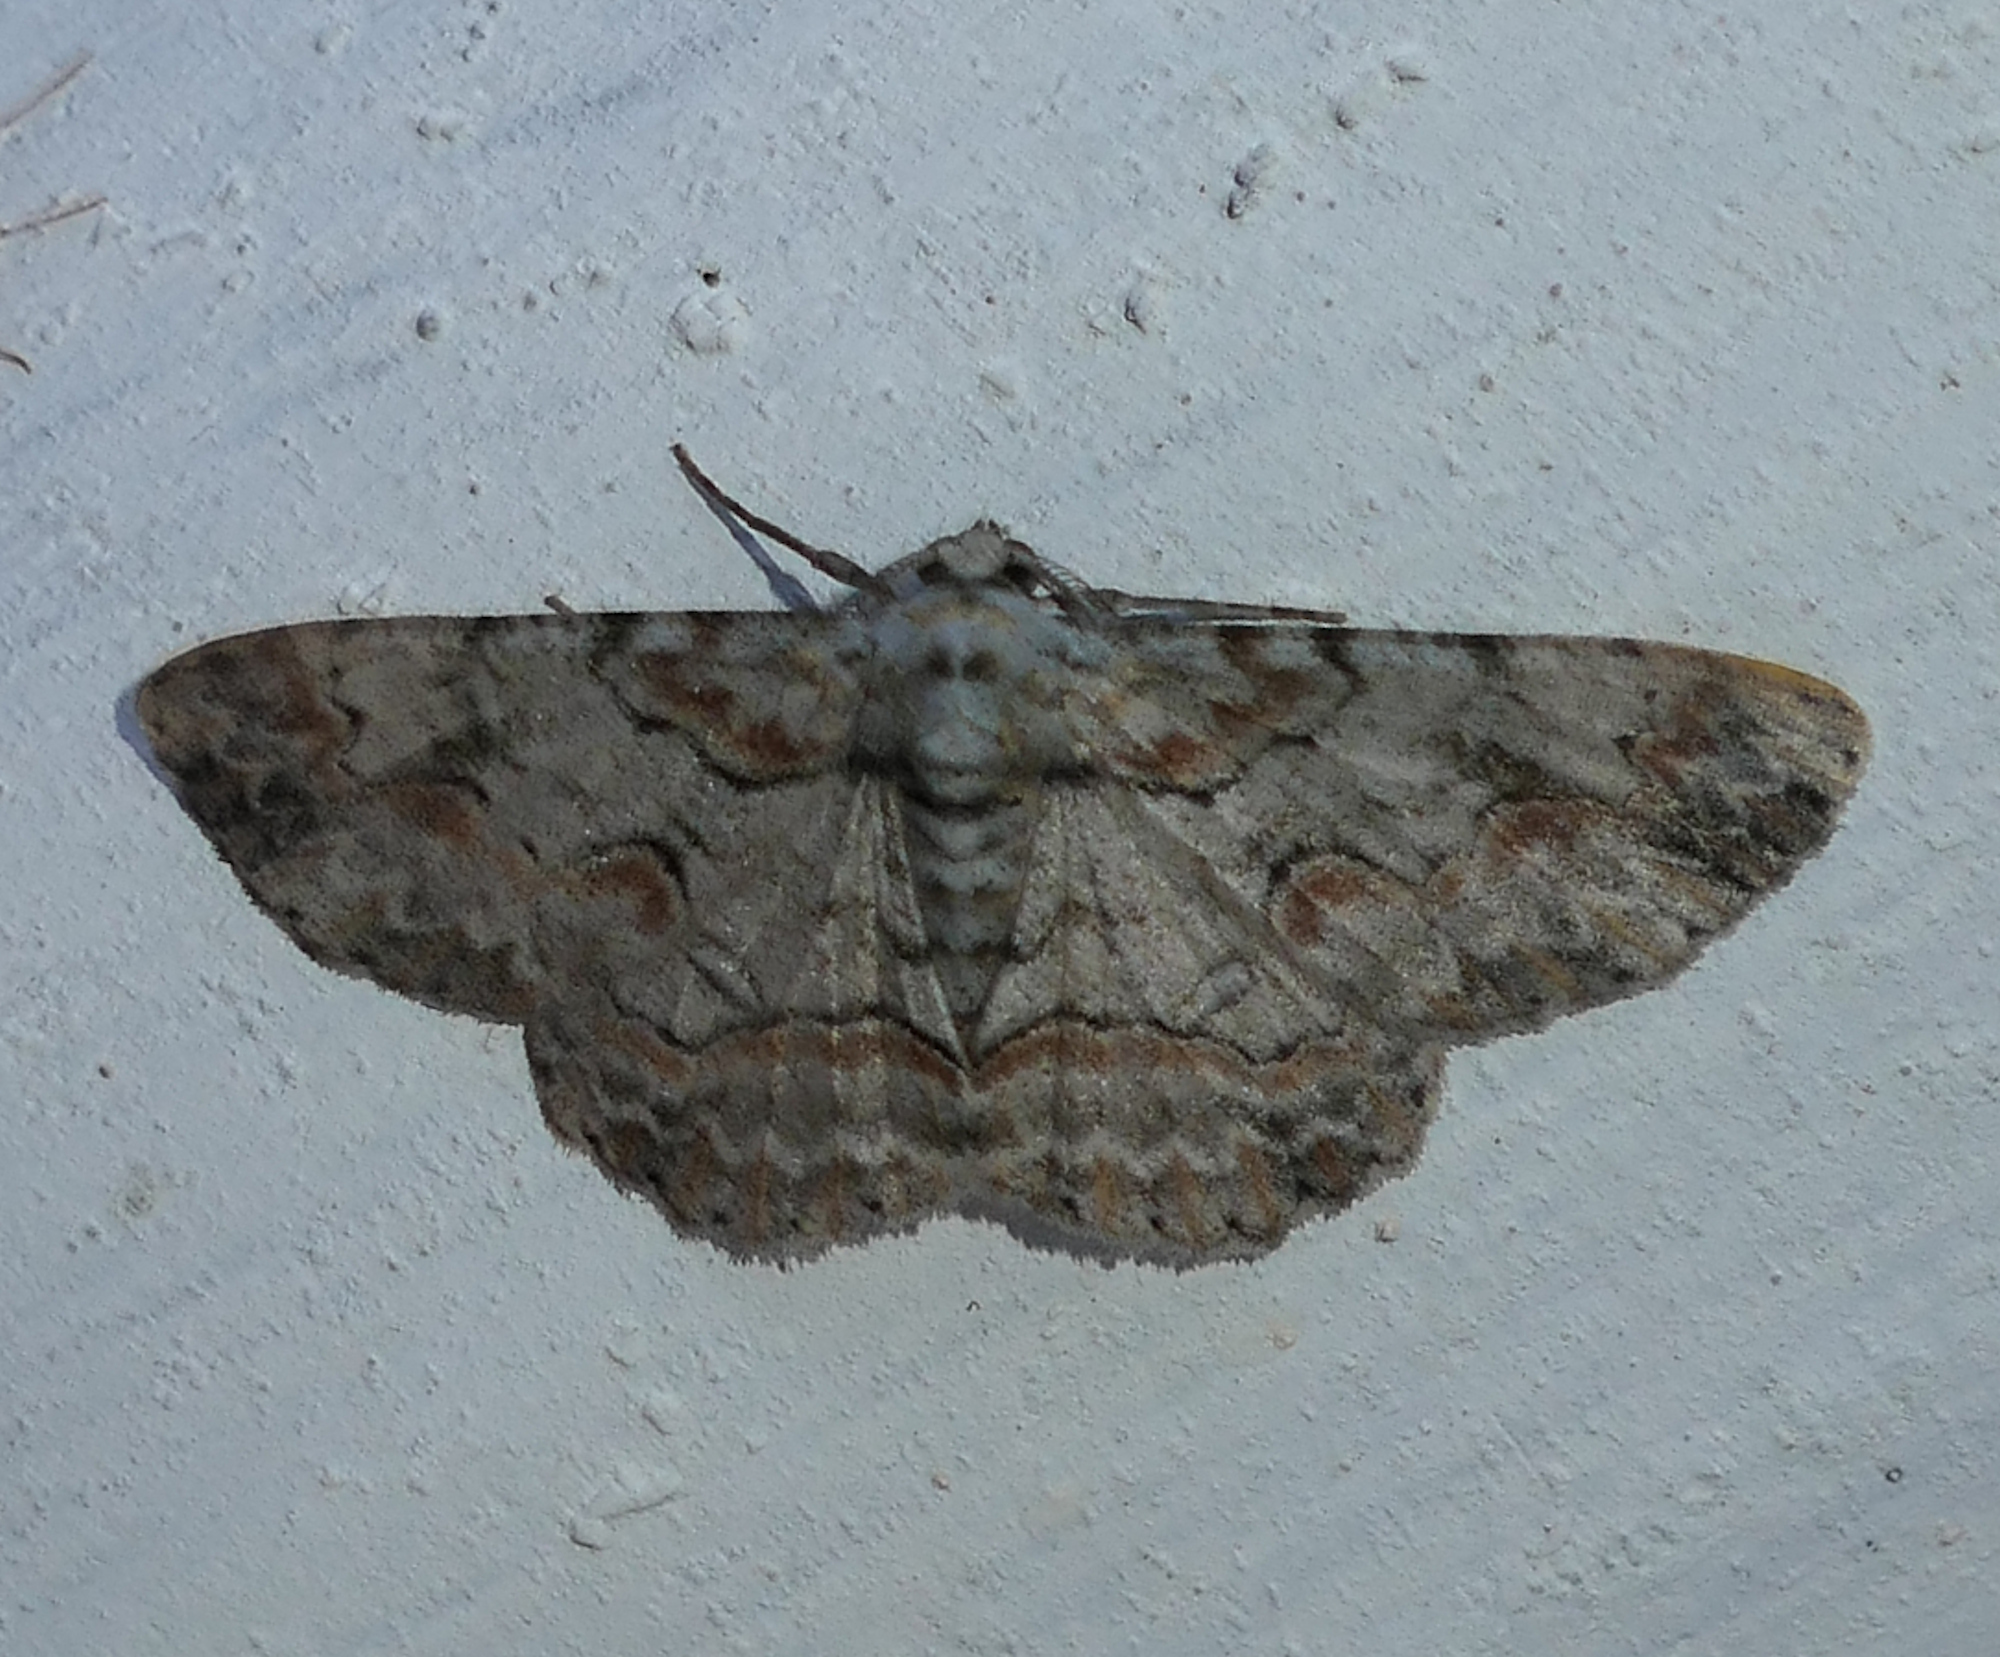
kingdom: Animalia
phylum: Arthropoda
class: Insecta
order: Lepidoptera
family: Geometridae
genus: Iridopsis
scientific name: Iridopsis defectaria
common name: Brown-shaded gray
